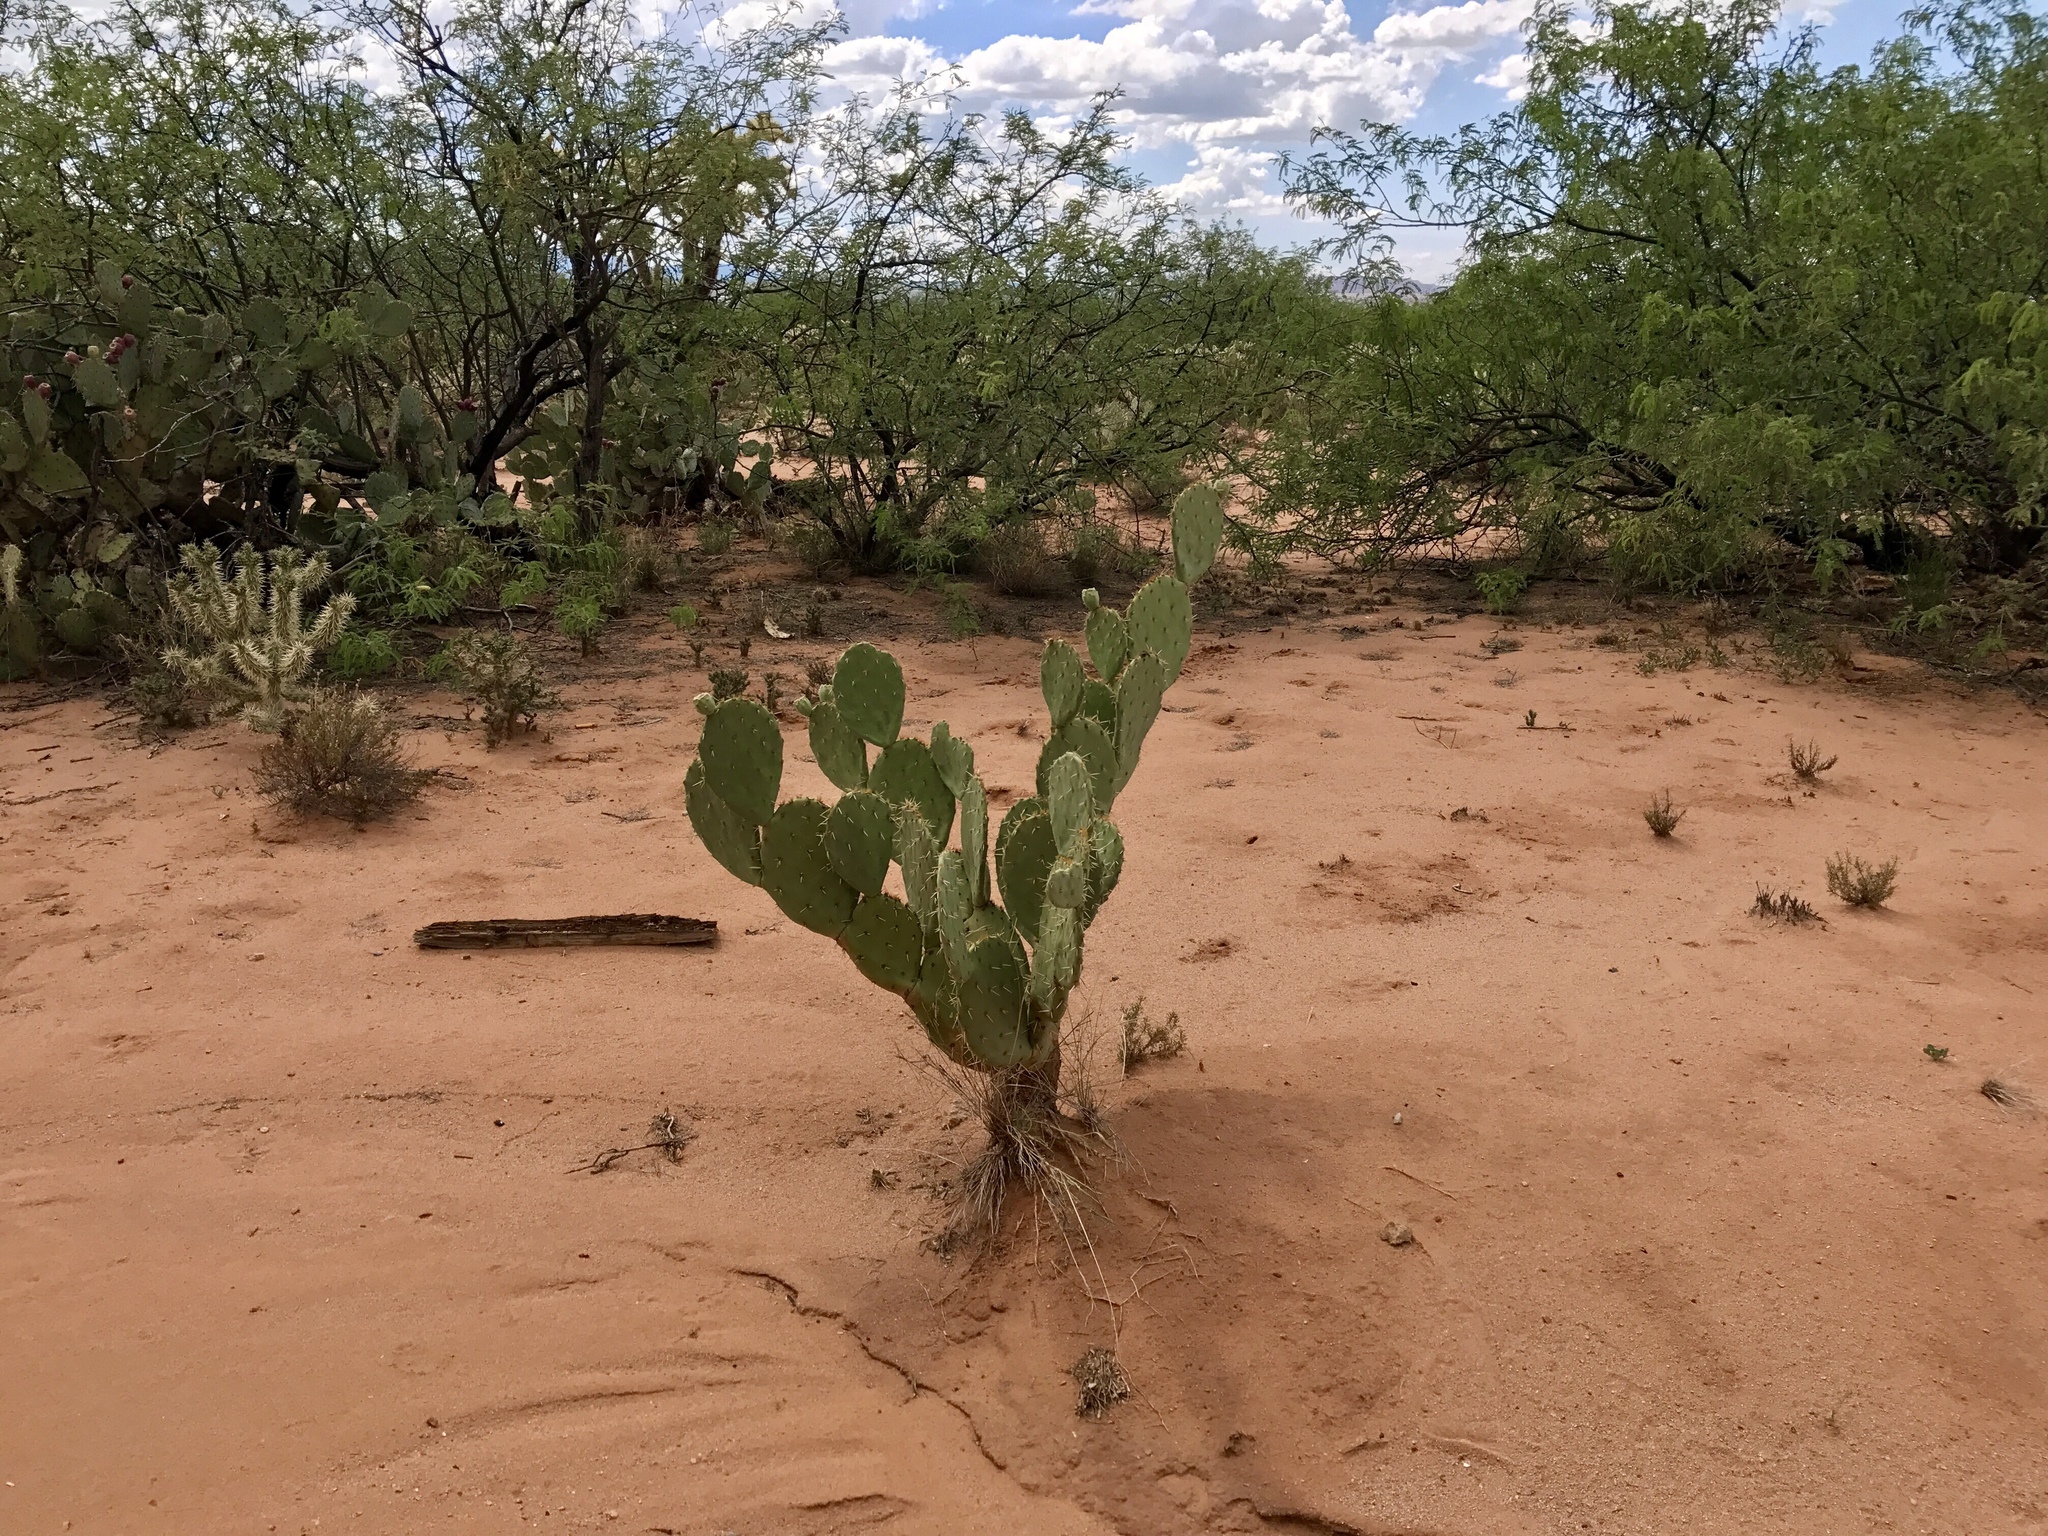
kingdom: Plantae
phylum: Tracheophyta
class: Magnoliopsida
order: Caryophyllales
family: Cactaceae
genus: Opuntia
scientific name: Opuntia engelmannii
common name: Cactus-apple
